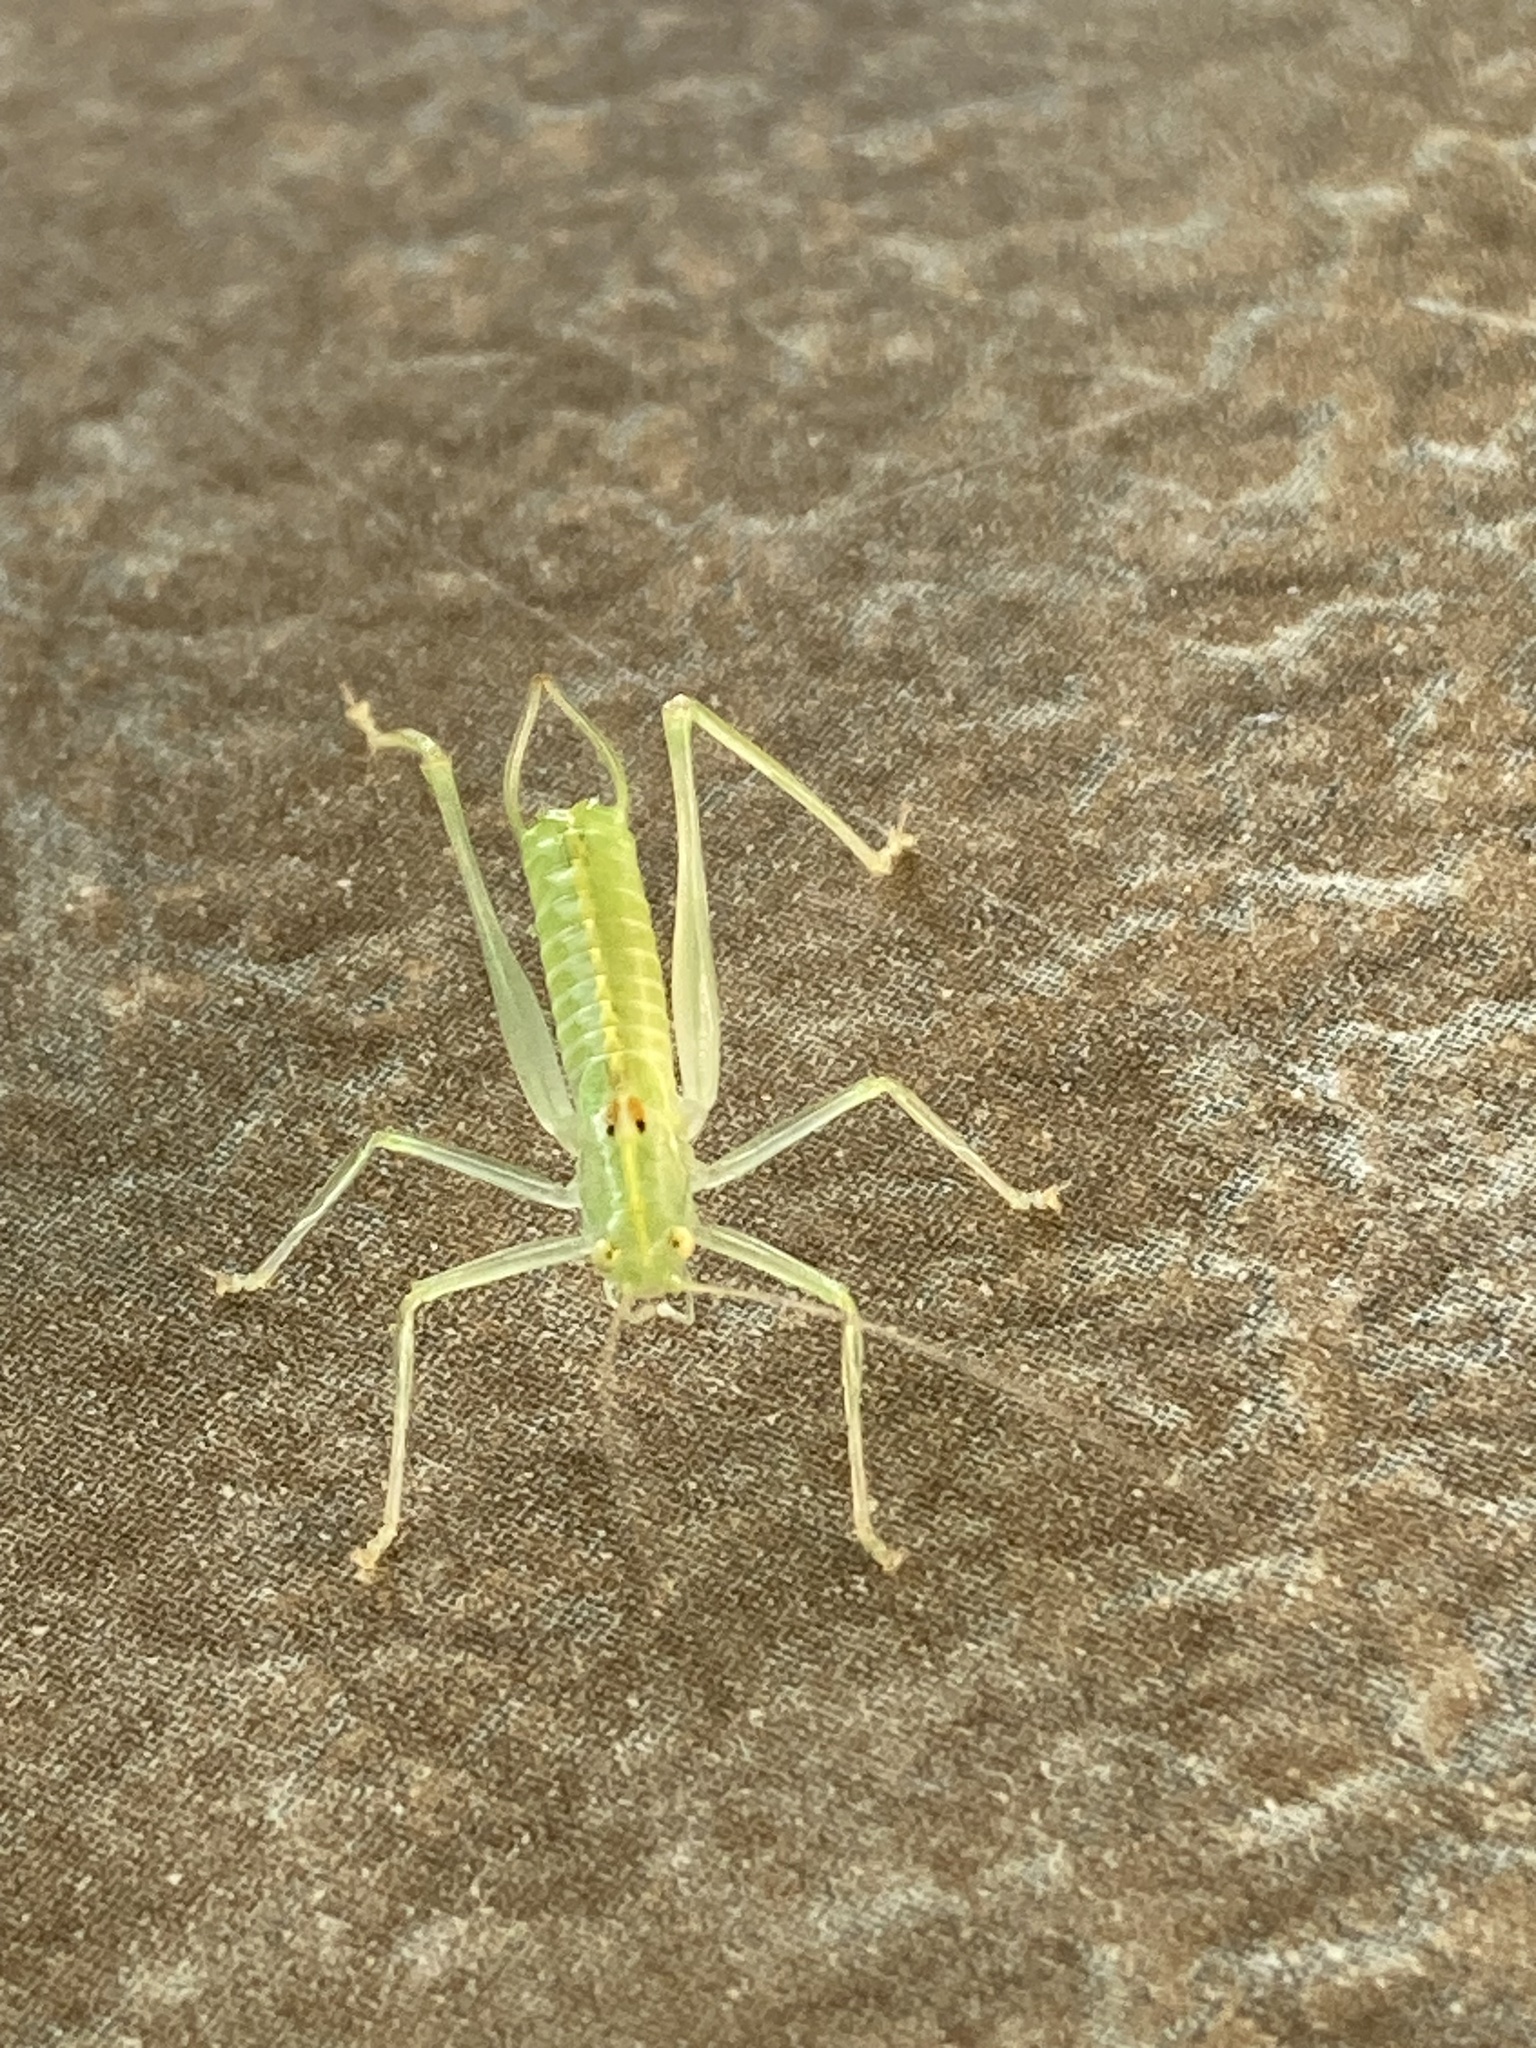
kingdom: Animalia
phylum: Arthropoda
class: Insecta
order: Orthoptera
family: Tettigoniidae
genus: Meconema
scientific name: Meconema meridionale
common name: Southern oak bush-cricket
